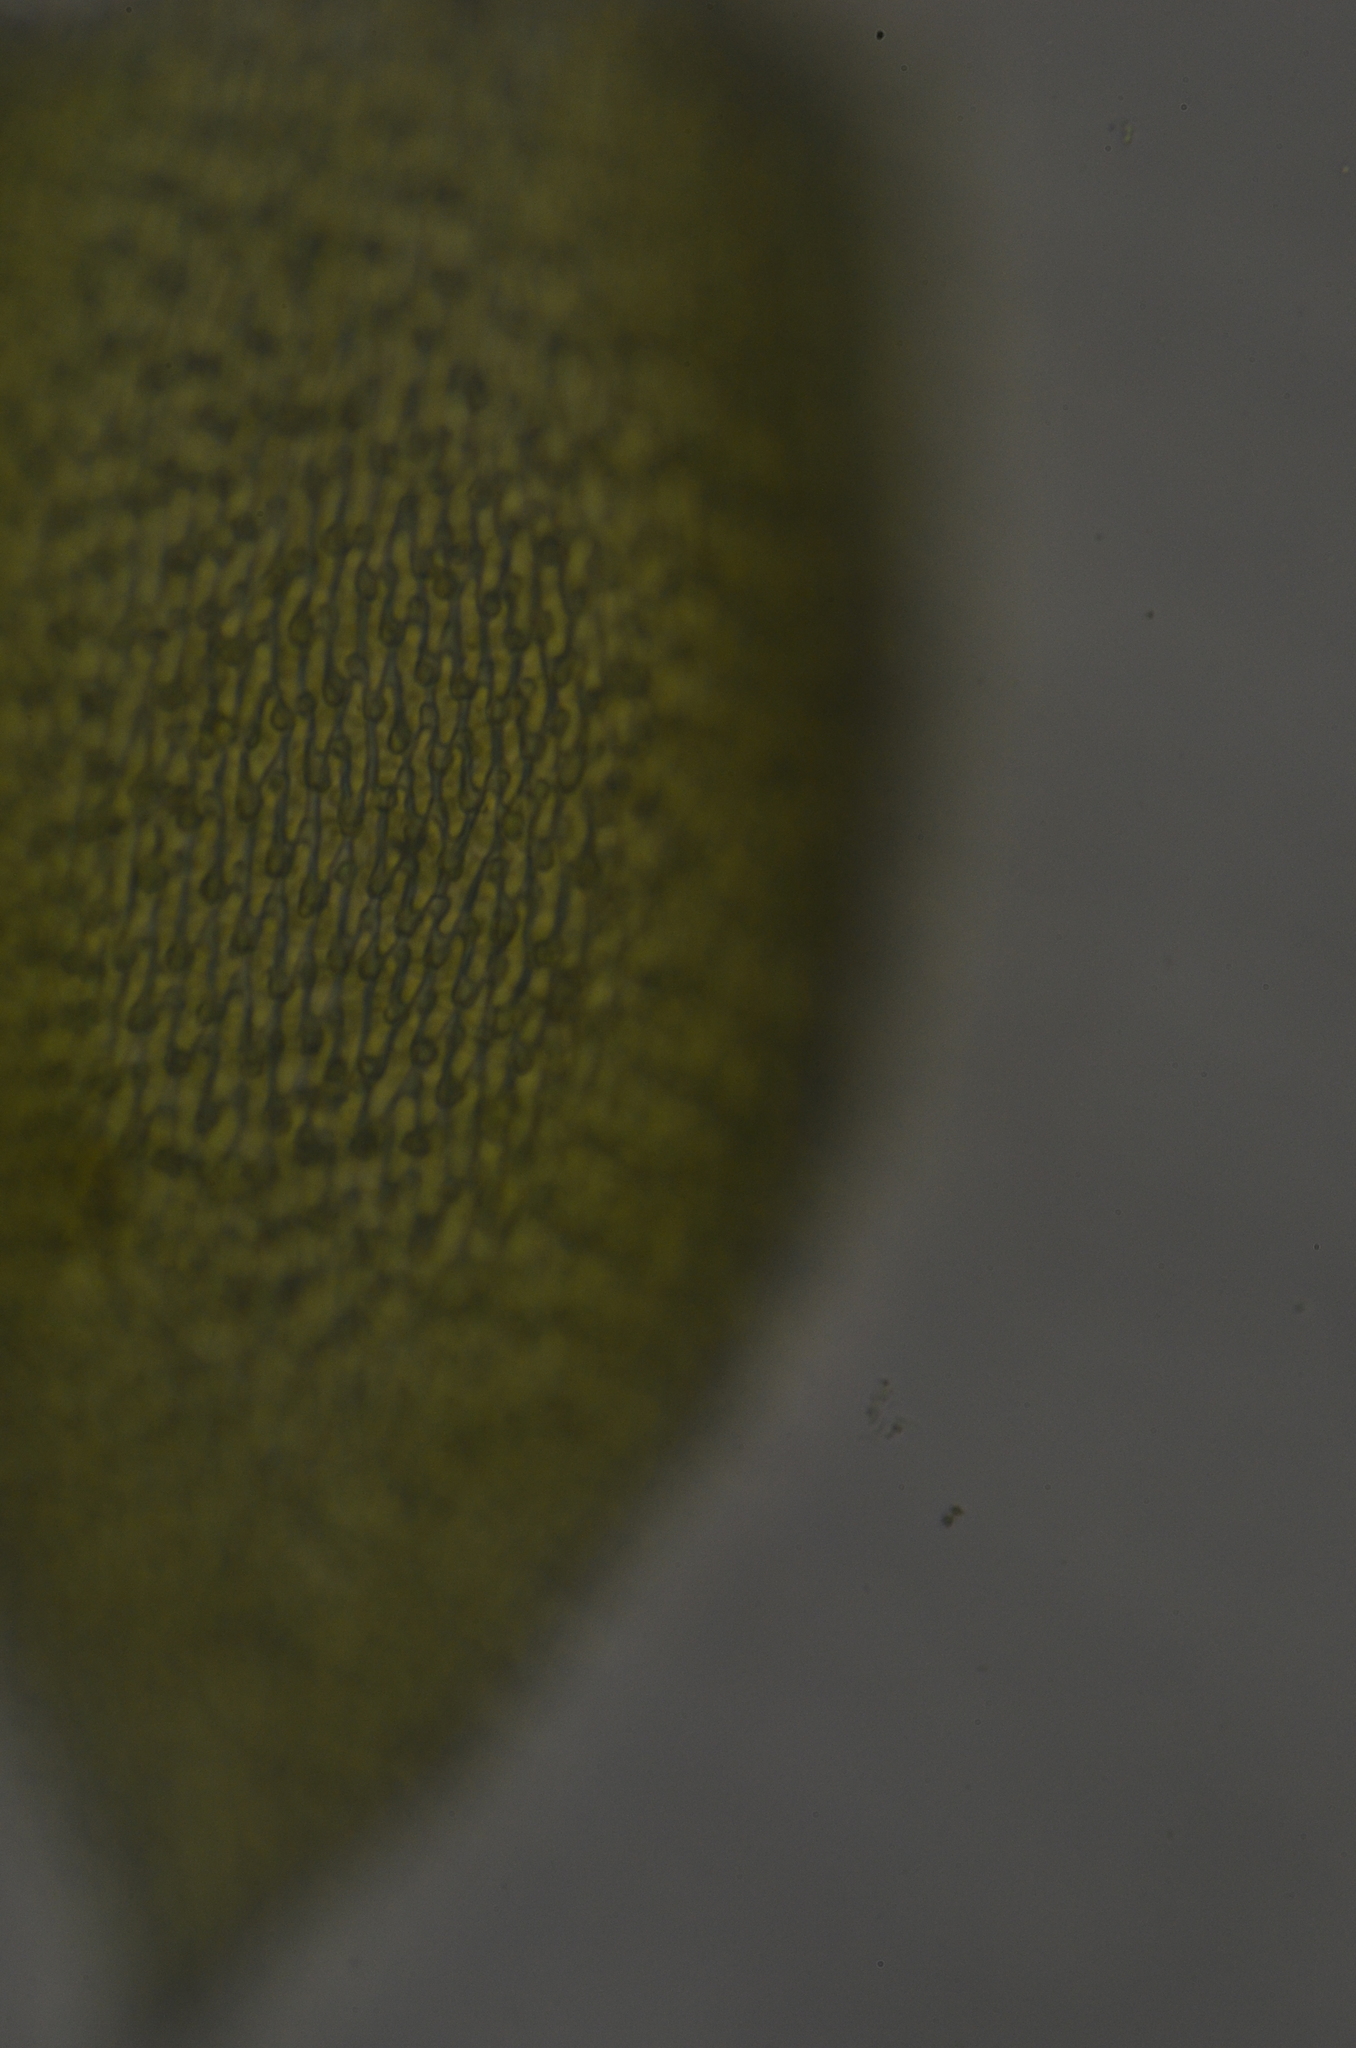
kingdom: Plantae
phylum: Bryophyta
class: Bryopsida
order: Hypnales
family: Pterigynandraceae
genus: Pterigynandrum
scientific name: Pterigynandrum filiforme
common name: Capillary wing moss
